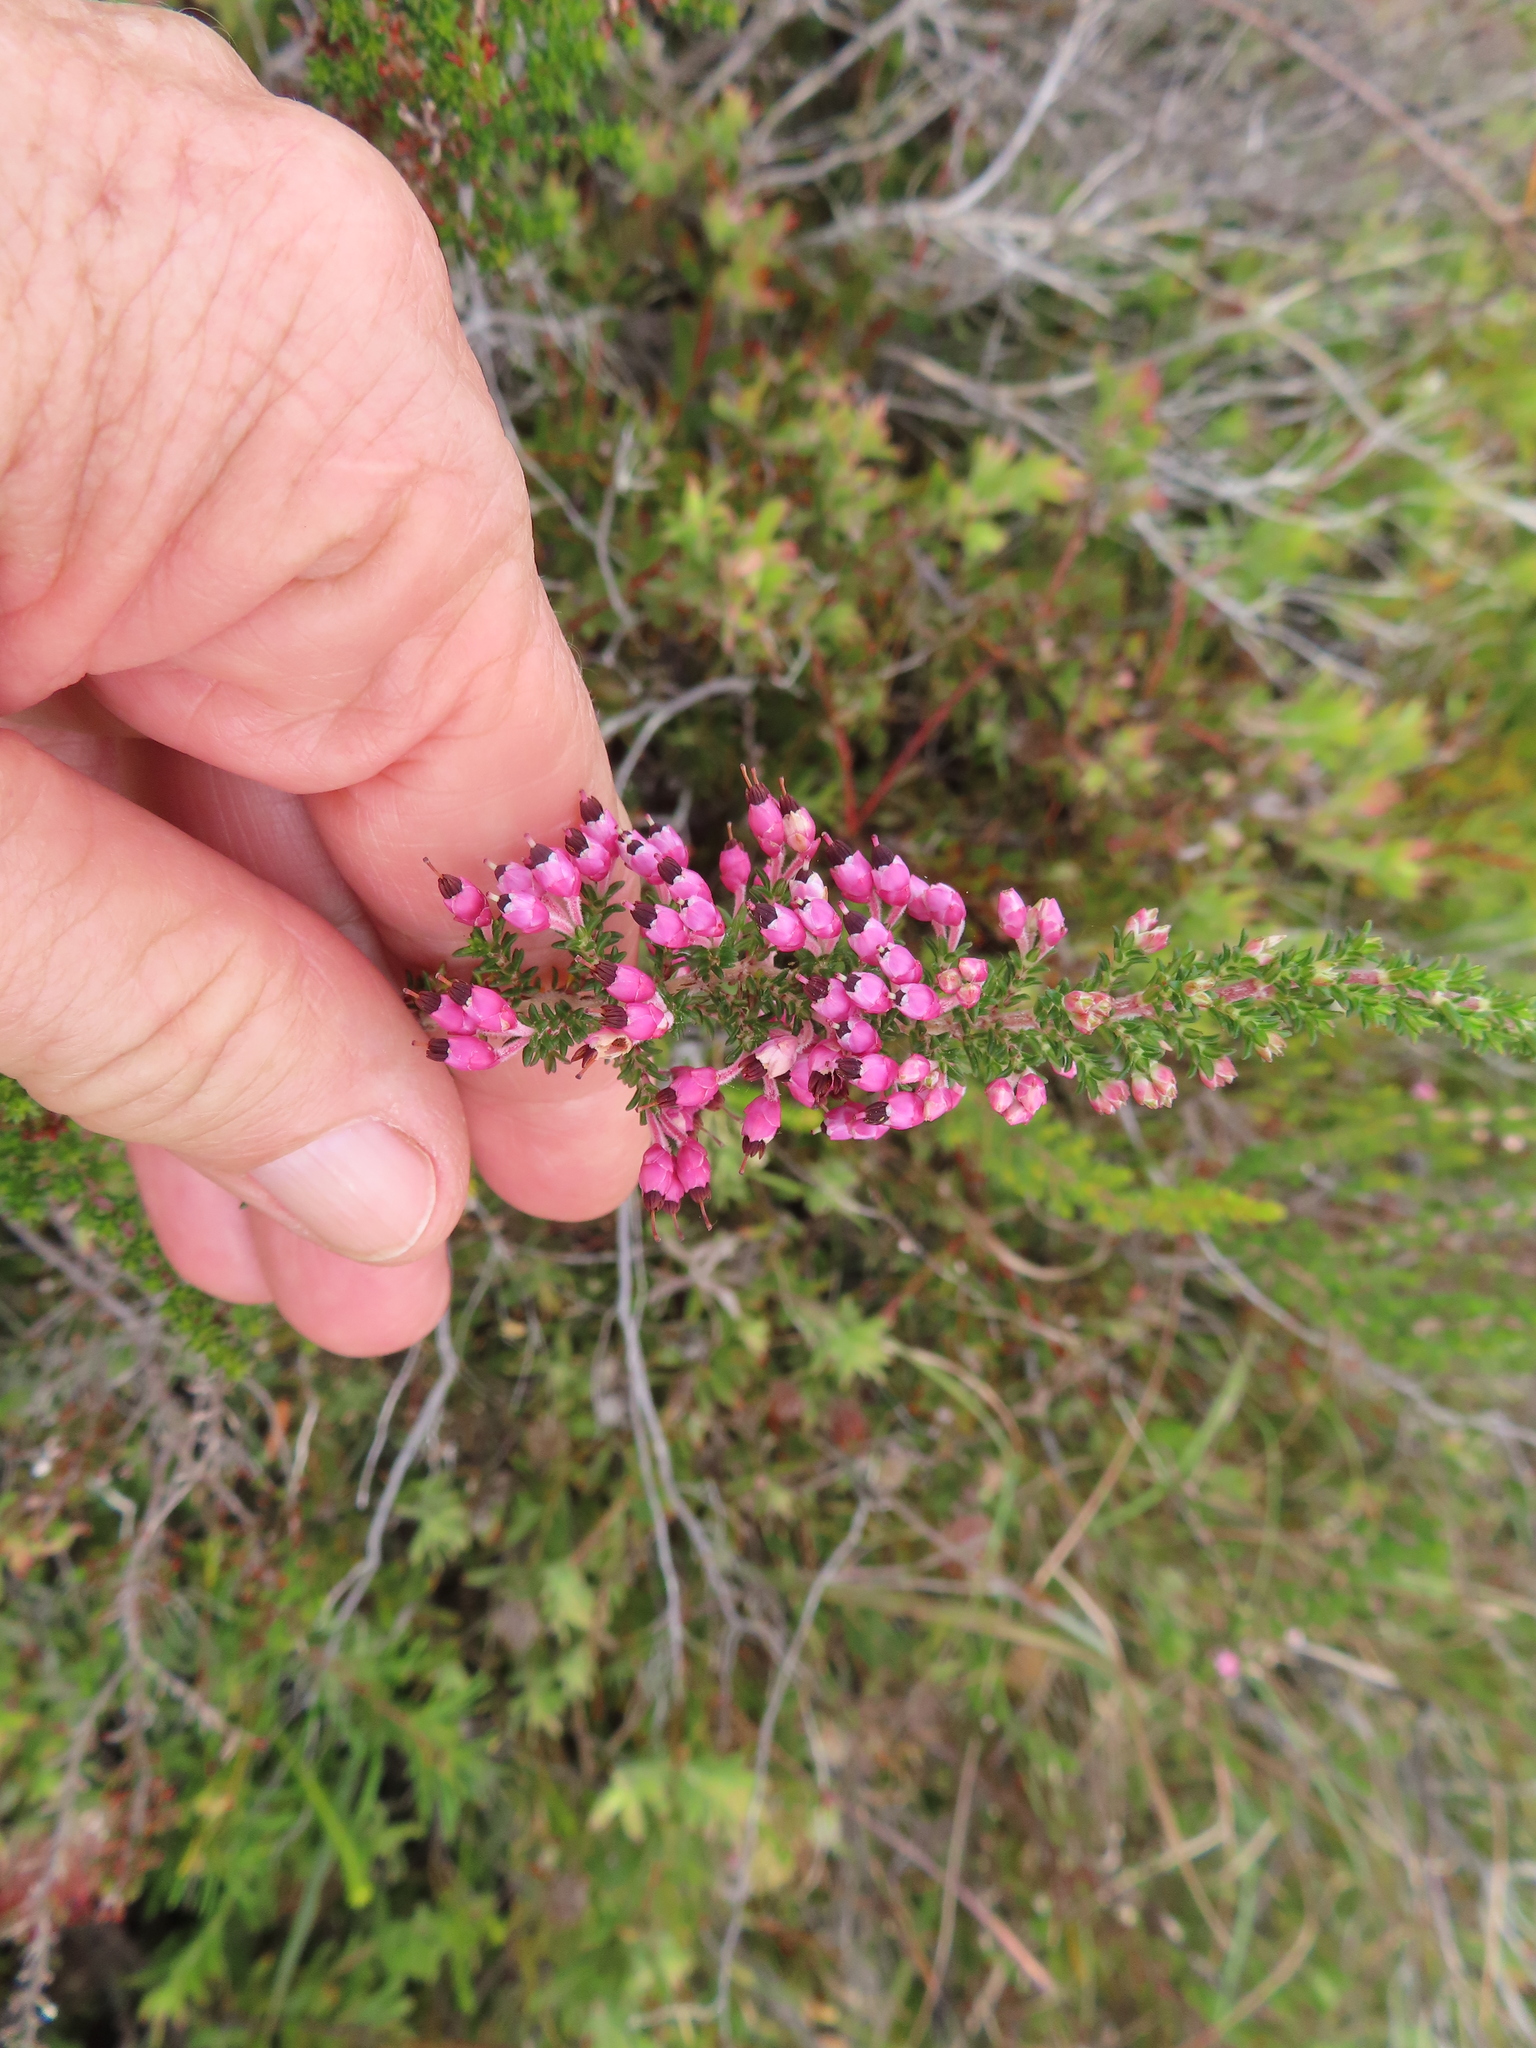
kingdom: Plantae
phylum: Tracheophyta
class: Magnoliopsida
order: Ericales
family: Ericaceae
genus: Erica
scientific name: Erica placentiflora
